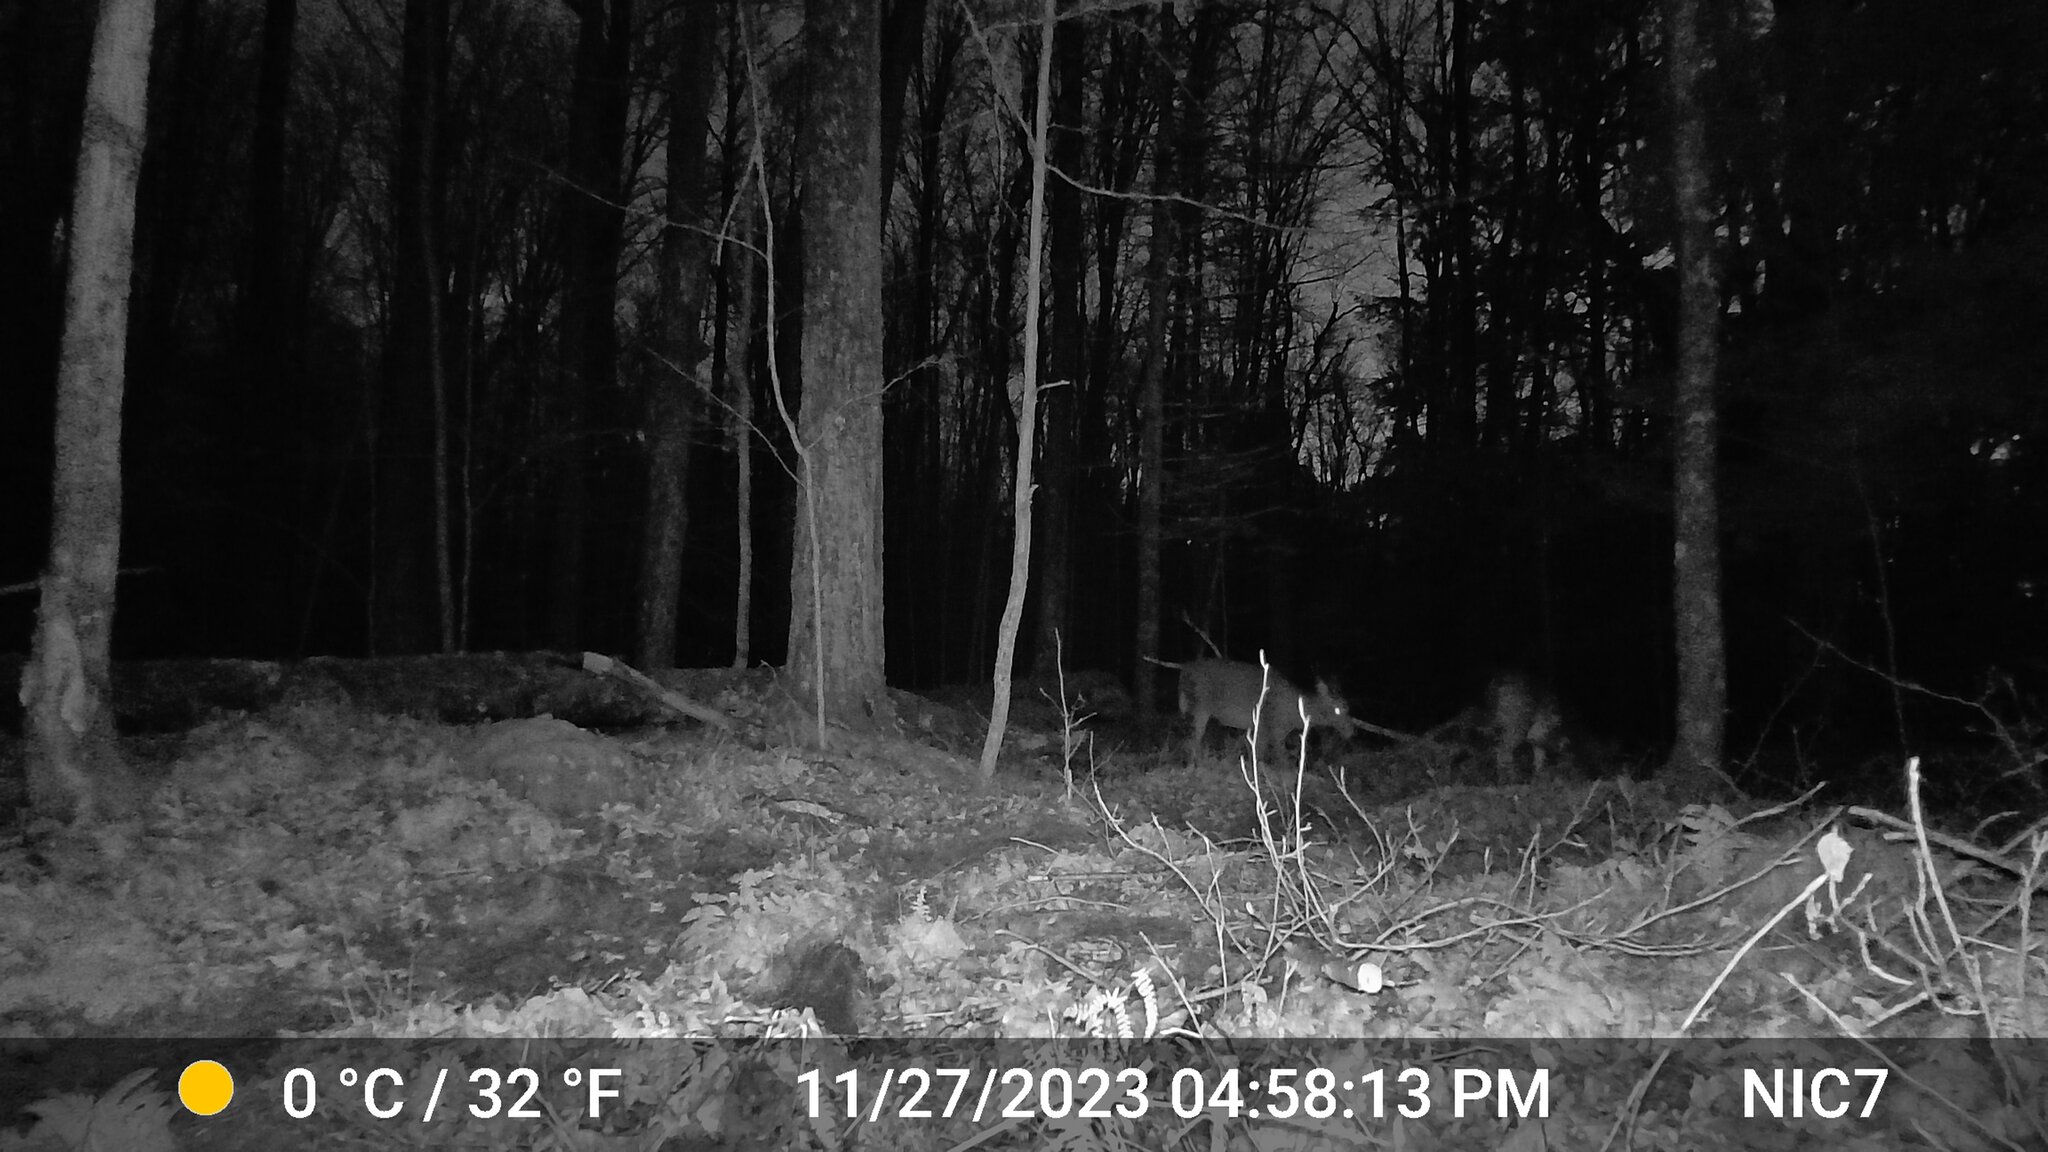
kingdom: Animalia
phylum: Chordata
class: Mammalia
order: Artiodactyla
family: Cervidae
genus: Odocoileus
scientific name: Odocoileus virginianus
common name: White-tailed deer
